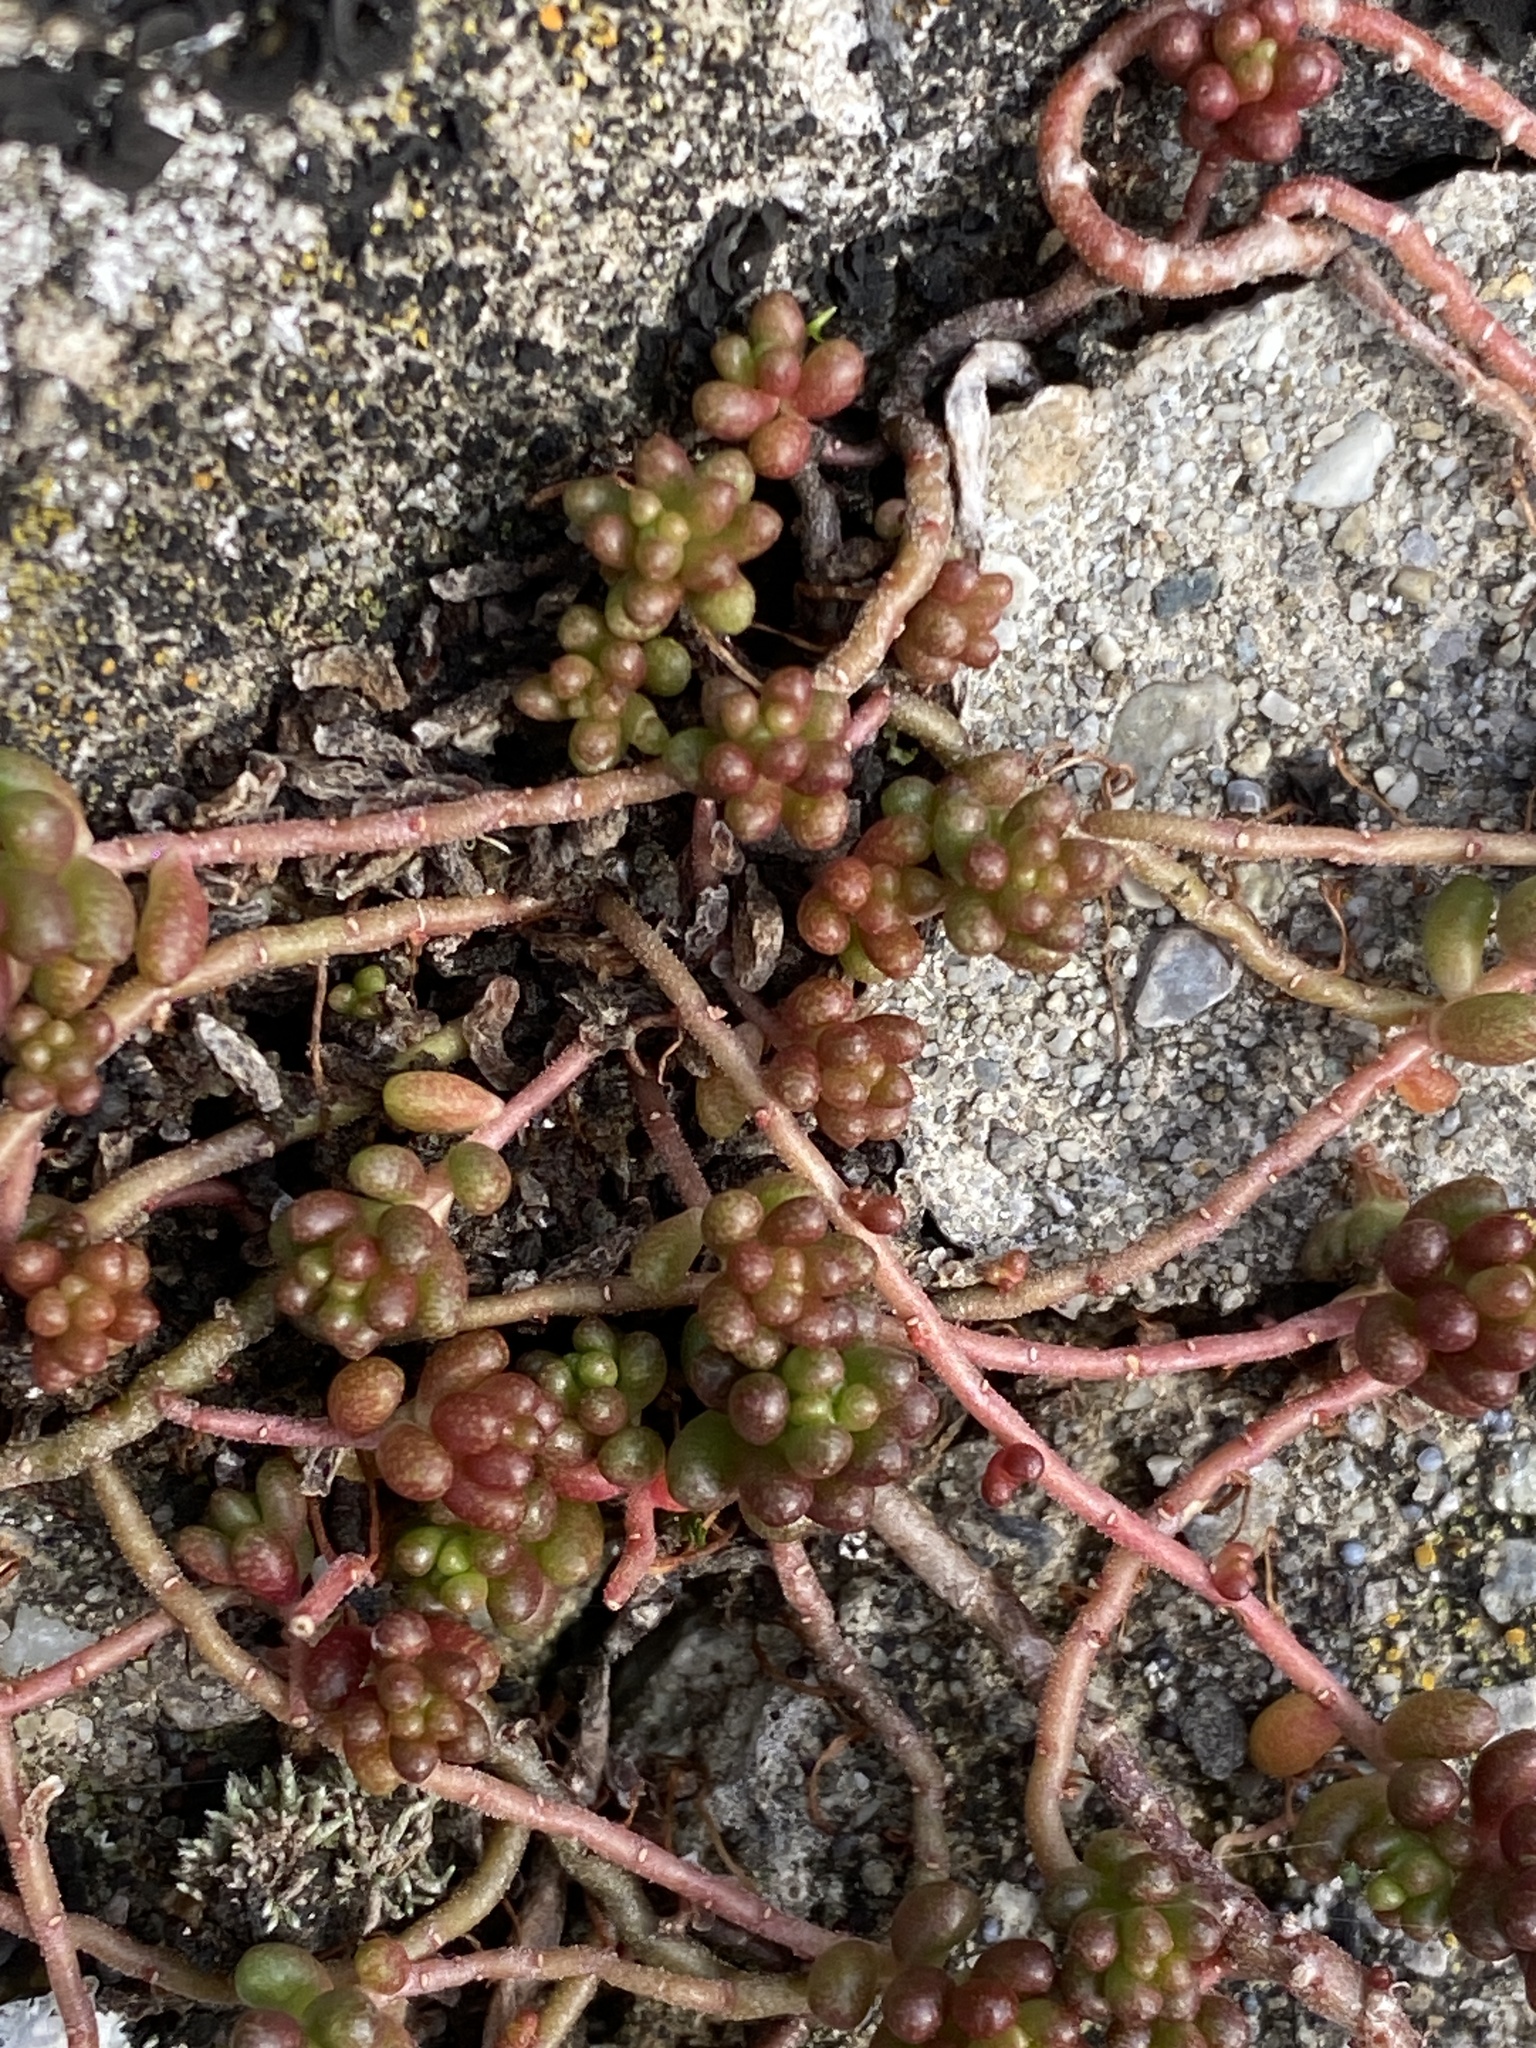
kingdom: Plantae
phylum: Tracheophyta
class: Magnoliopsida
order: Saxifragales
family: Crassulaceae
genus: Sedum
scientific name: Sedum album
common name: White stonecrop
